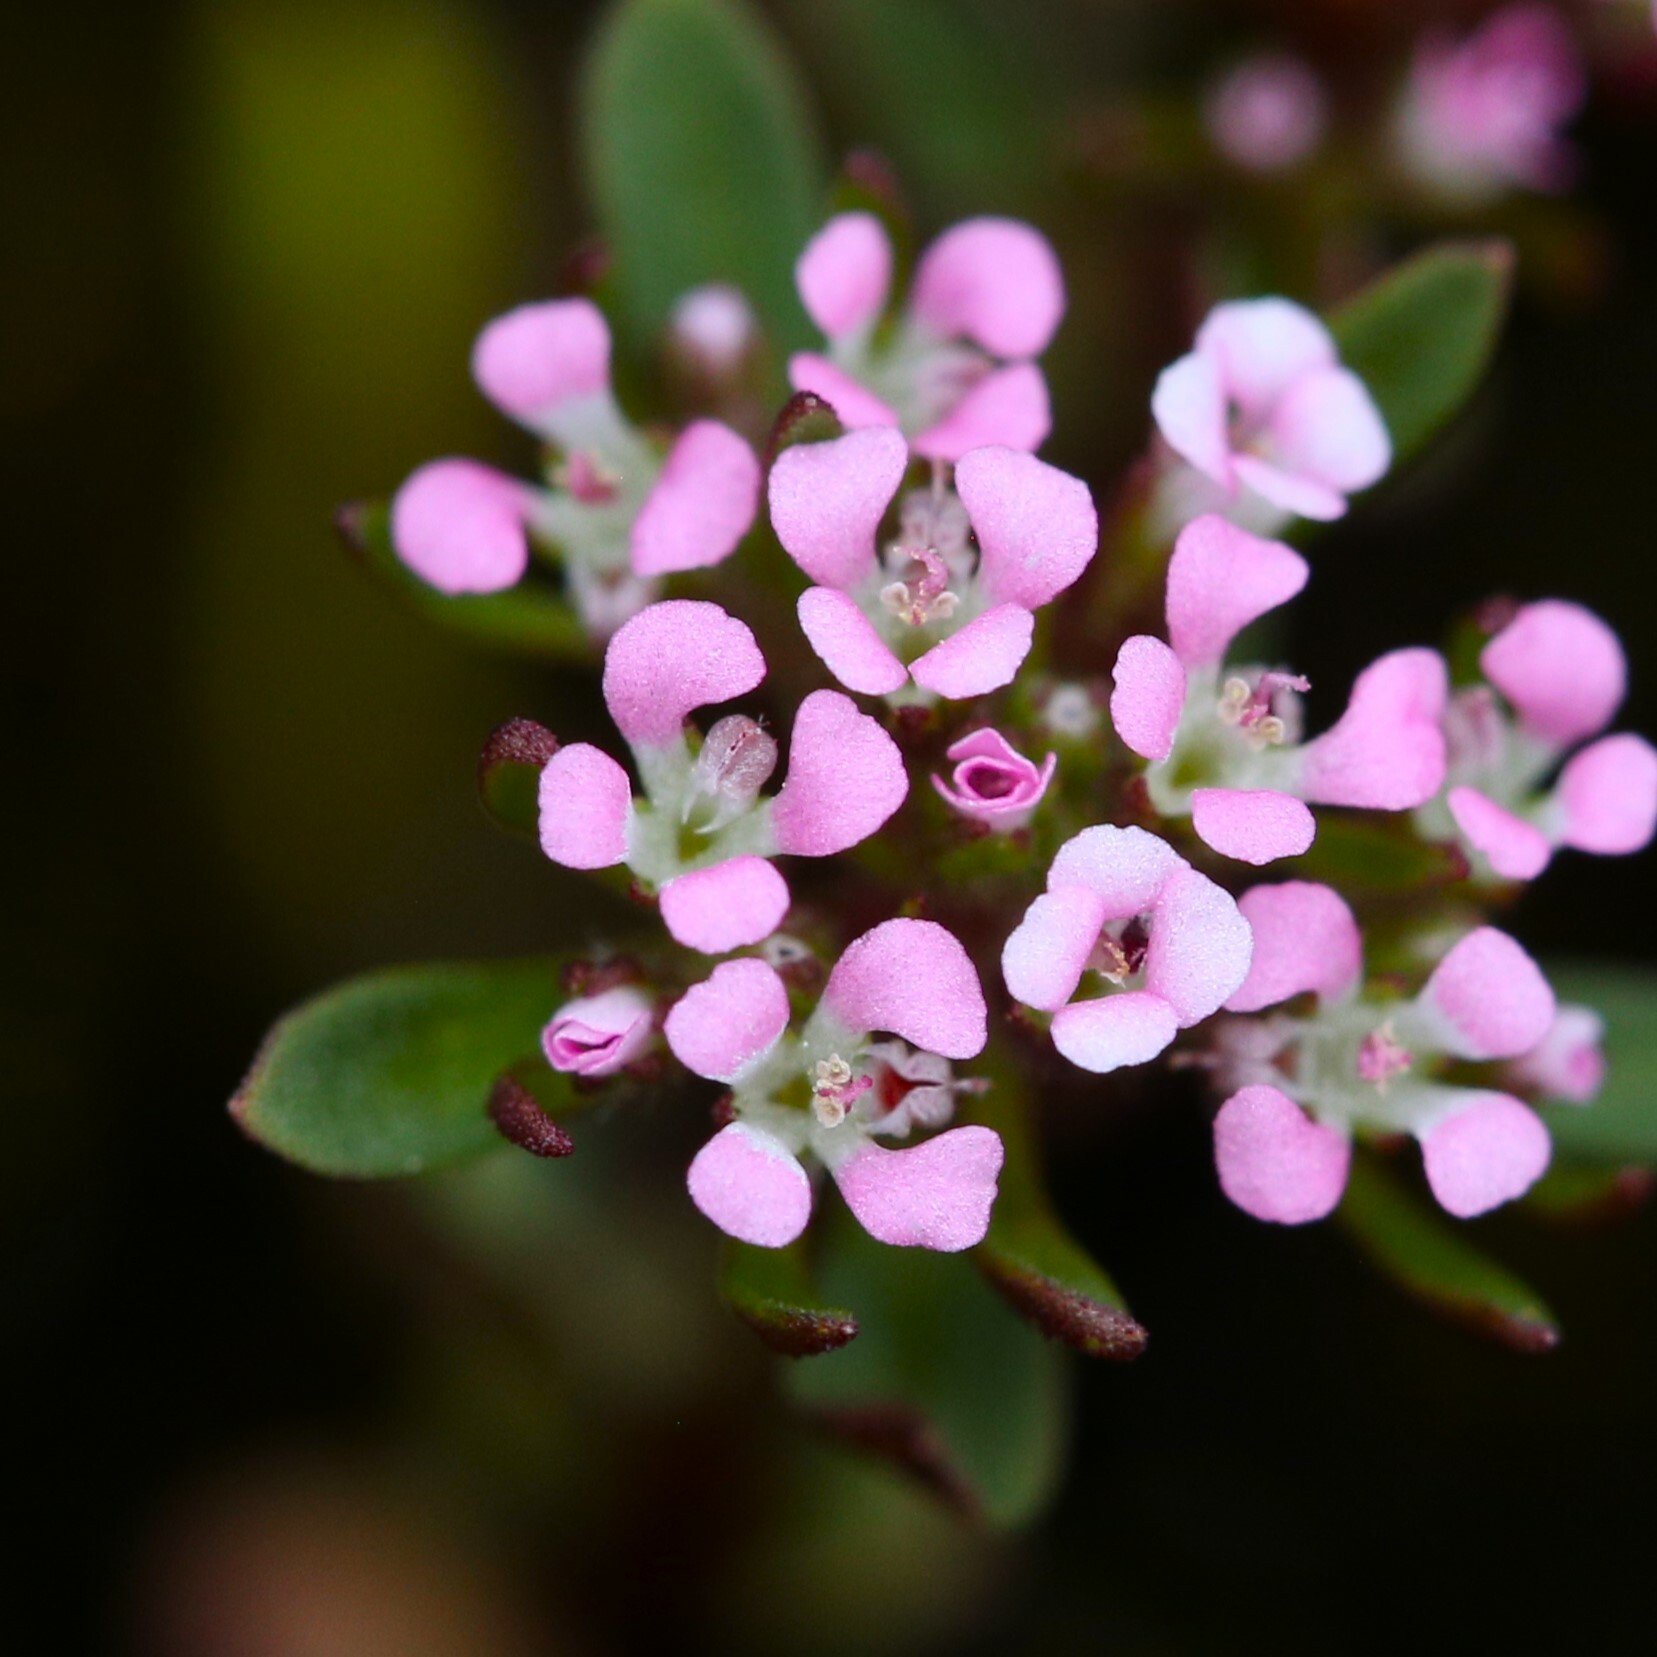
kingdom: Plantae
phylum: Tracheophyta
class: Magnoliopsida
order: Asterales
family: Stylidiaceae
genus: Levenhookia
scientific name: Levenhookia pusilla
